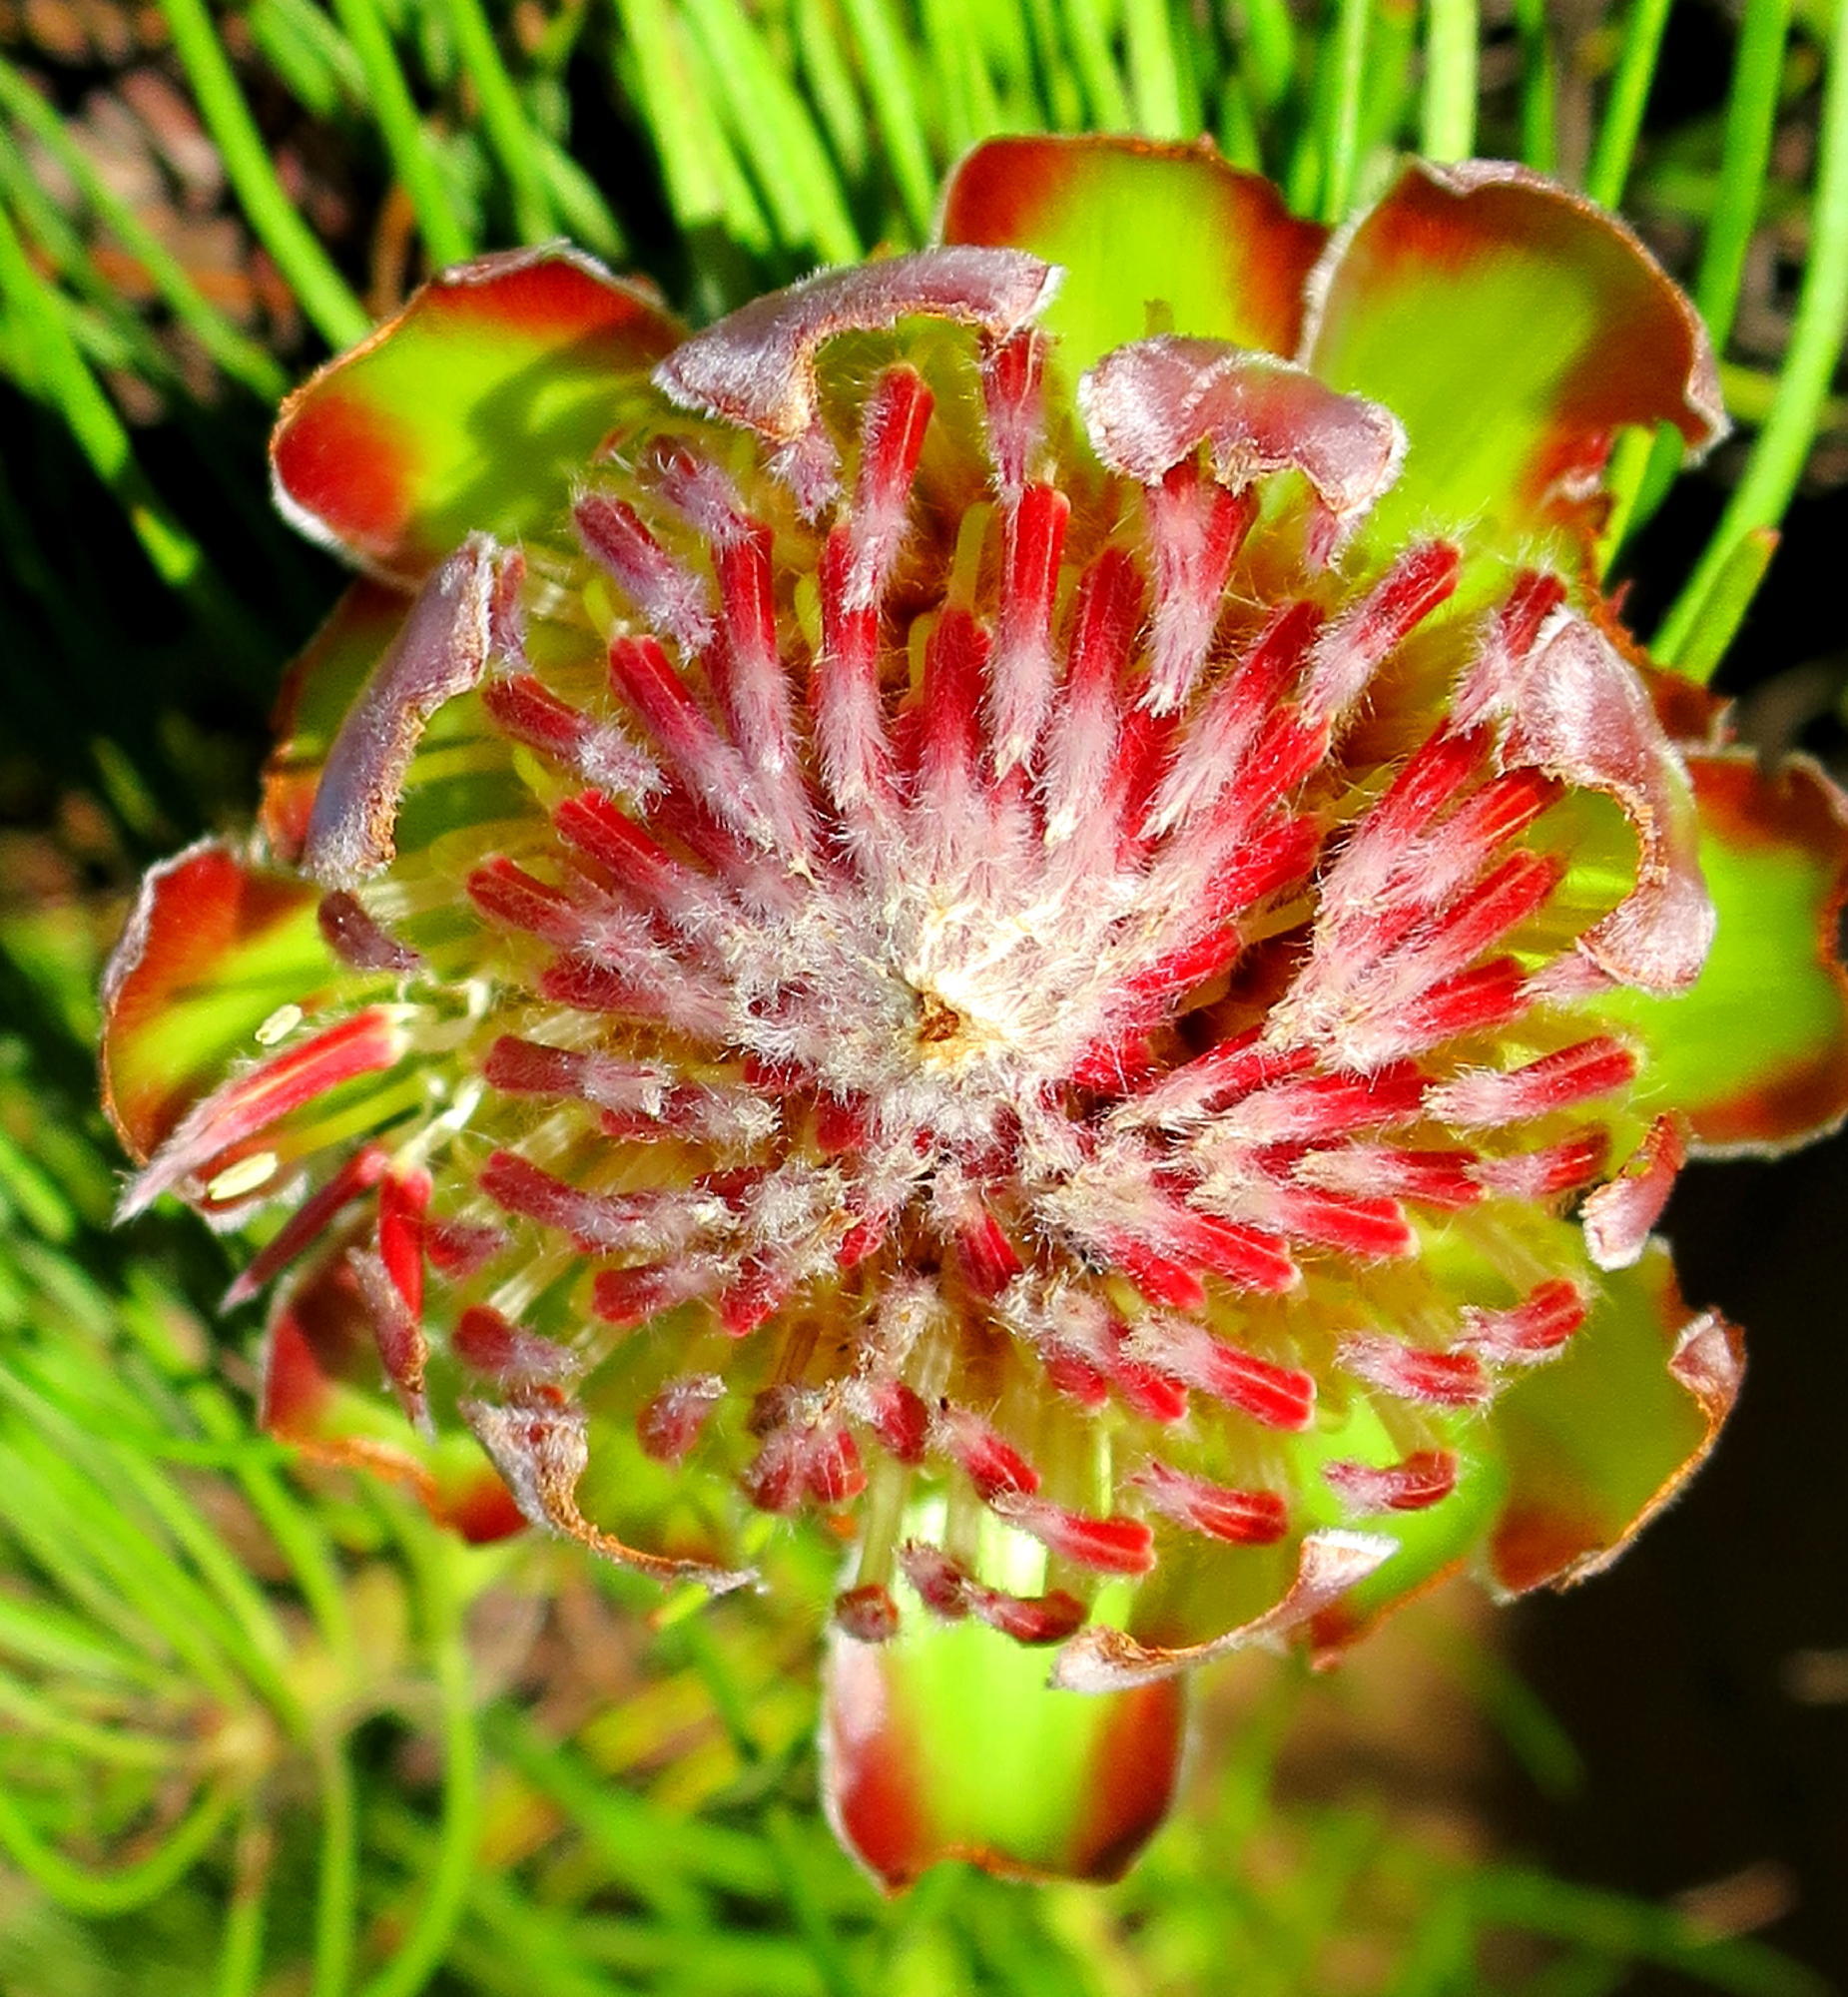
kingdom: Plantae
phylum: Tracheophyta
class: Magnoliopsida
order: Proteales
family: Proteaceae
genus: Protea
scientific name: Protea montana
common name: Swartberg sugarbush
